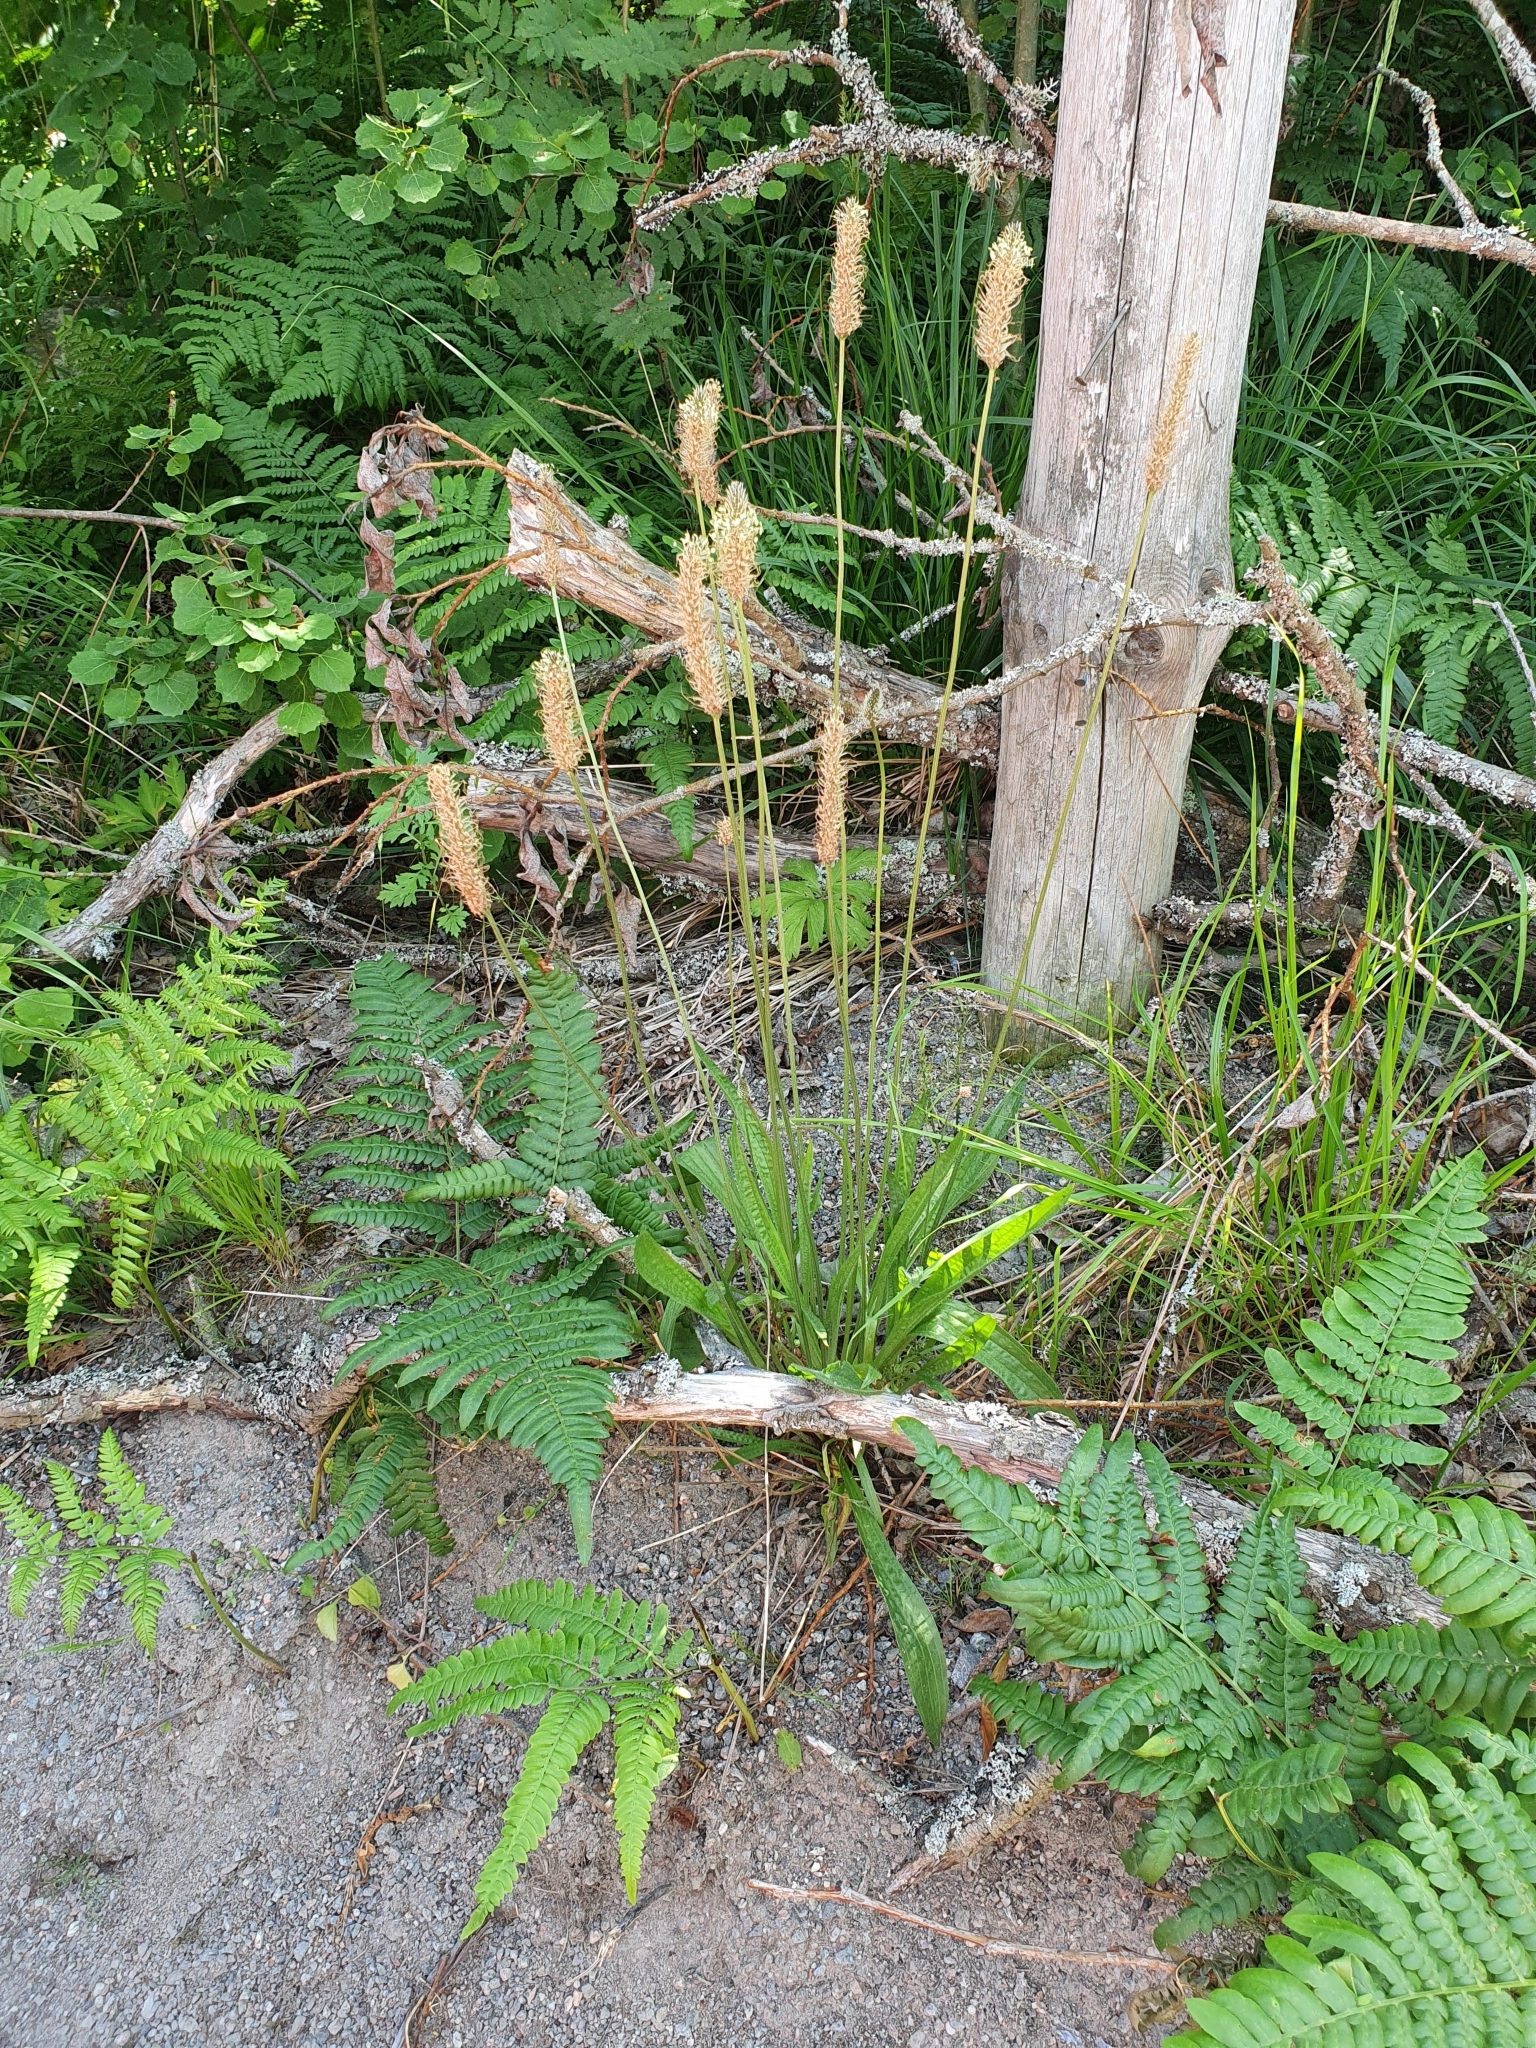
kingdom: Plantae
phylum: Tracheophyta
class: Magnoliopsida
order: Lamiales
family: Plantaginaceae
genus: Plantago
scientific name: Plantago lanceolata
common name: Ribwort plantain
